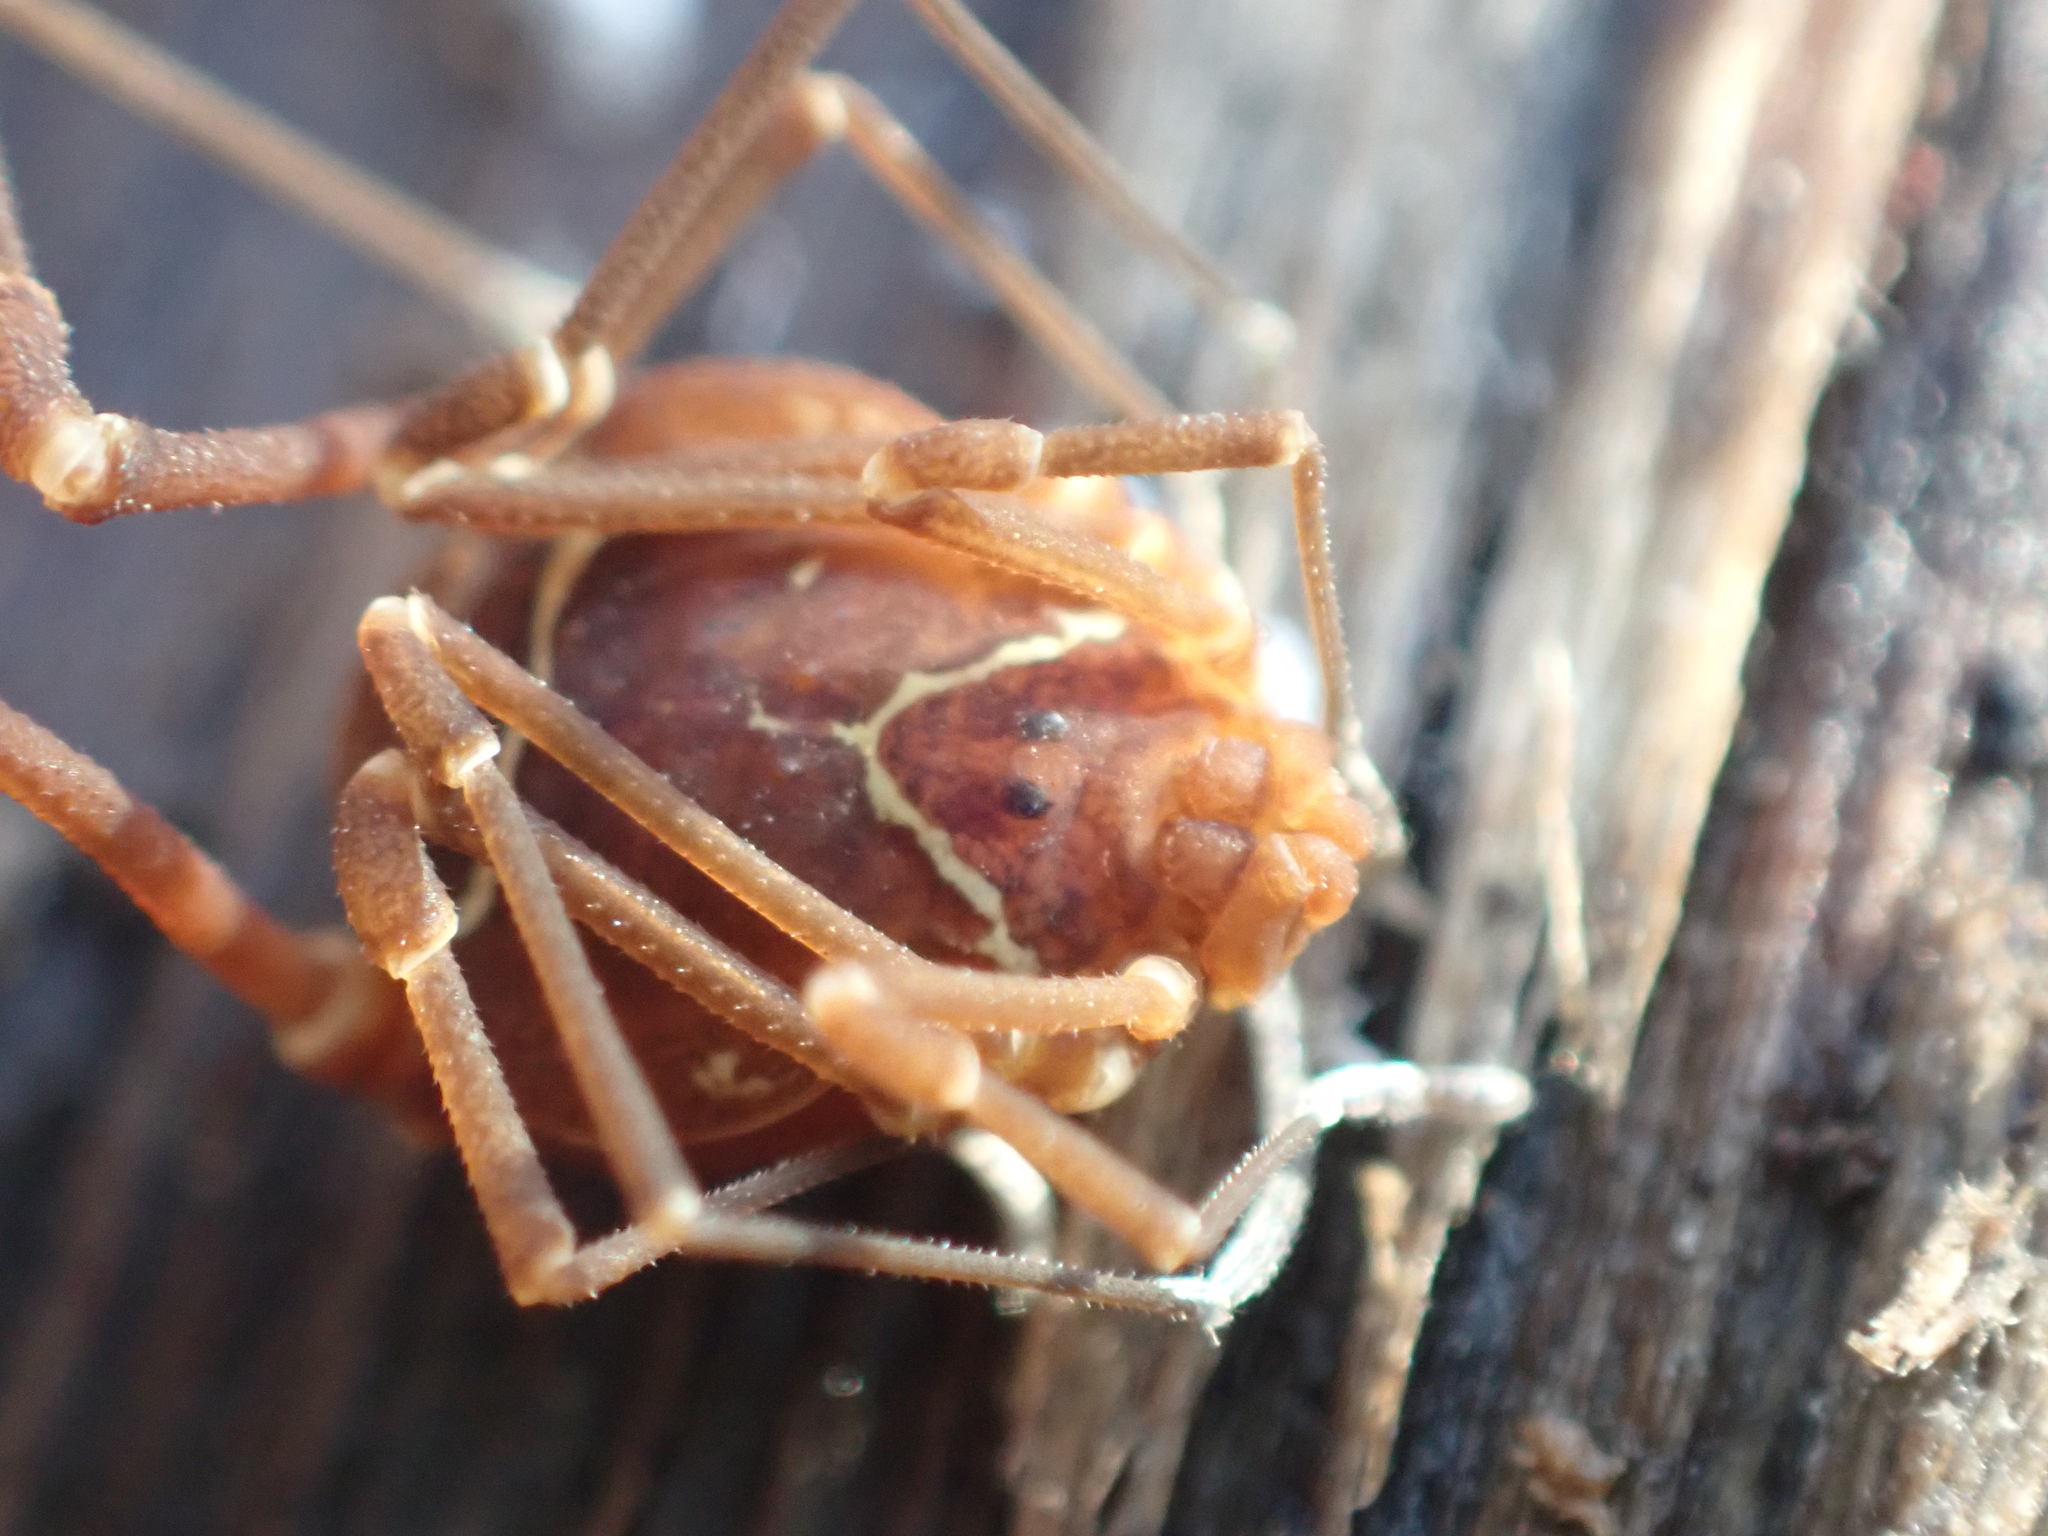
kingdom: Animalia
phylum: Arthropoda
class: Arachnida
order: Opiliones
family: Cosmetidae
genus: Libitioides
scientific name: Libitioides sayi
